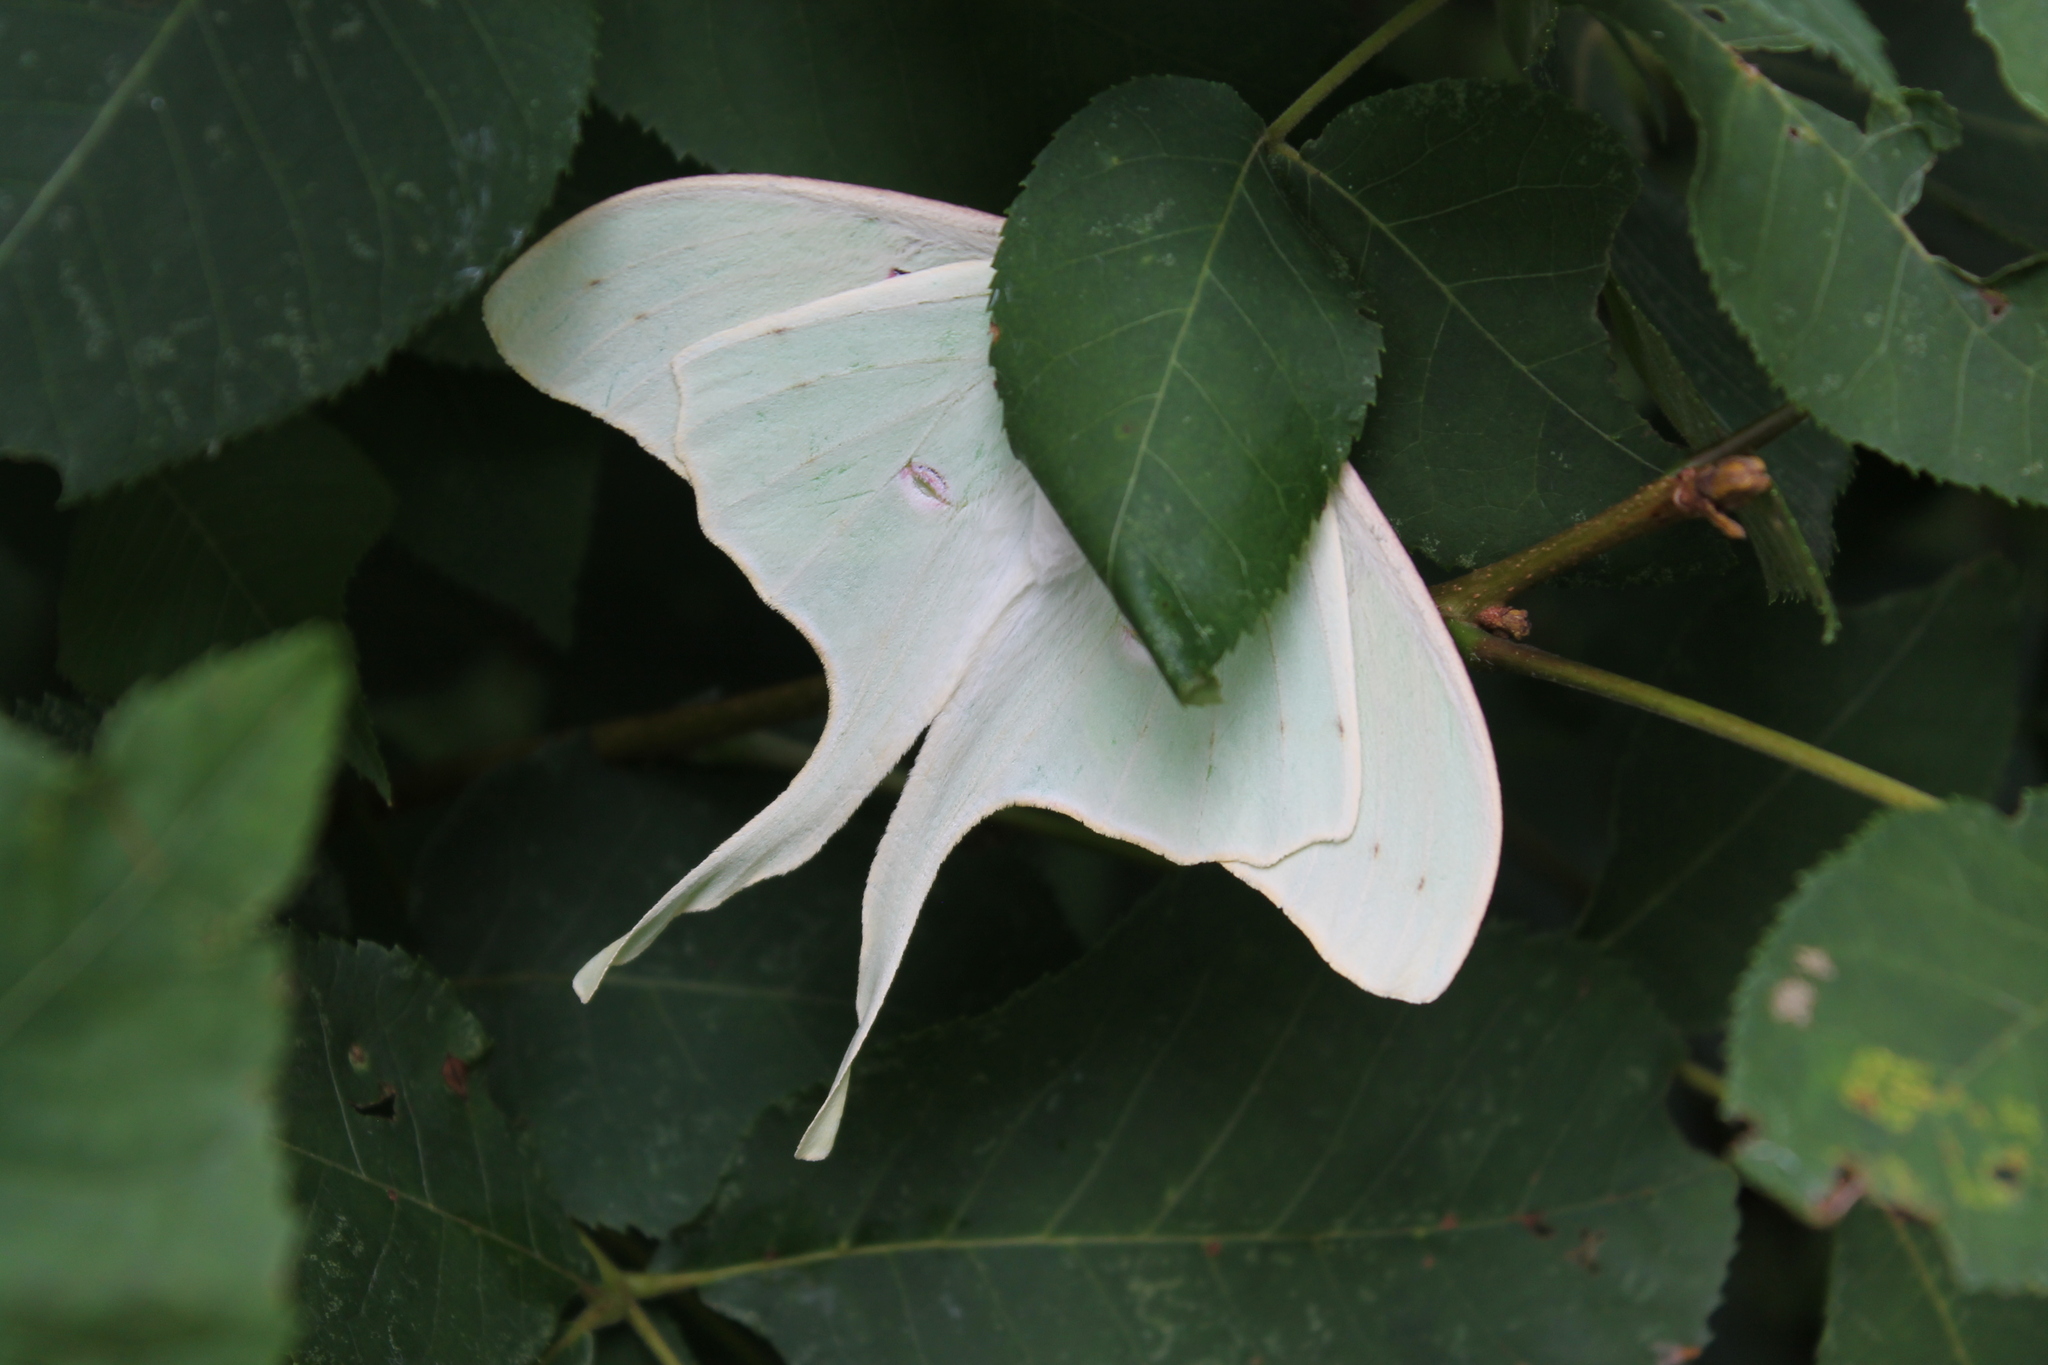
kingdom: Animalia
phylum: Arthropoda
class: Insecta
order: Lepidoptera
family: Saturniidae
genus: Actias
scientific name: Actias luna
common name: Luna moth
